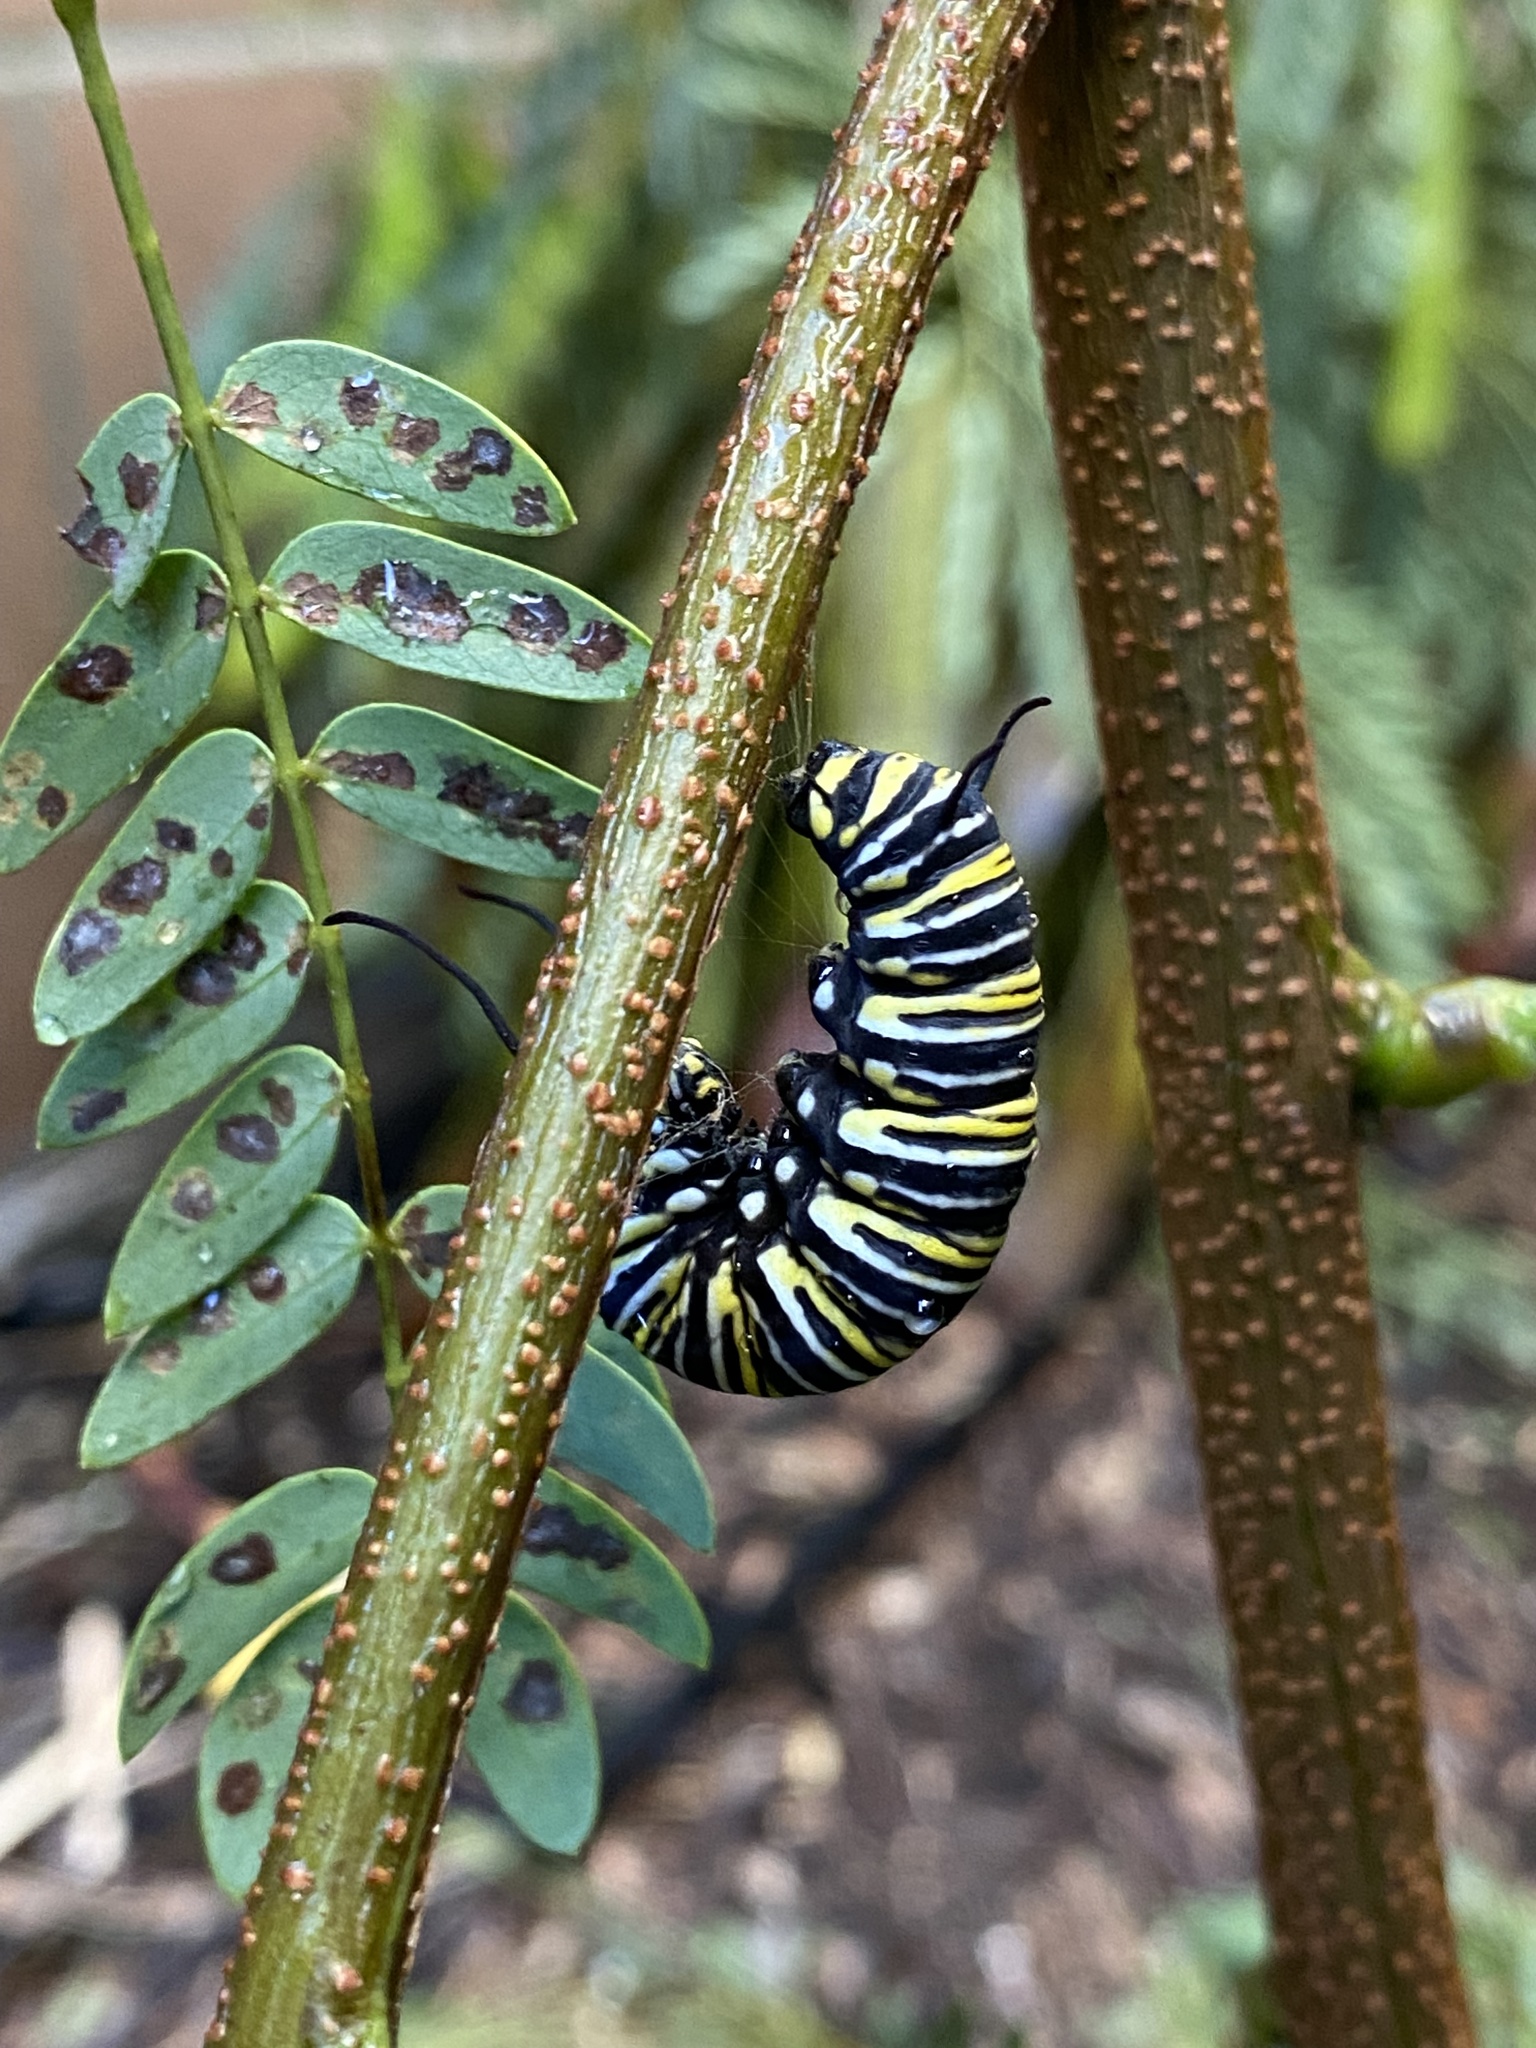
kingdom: Animalia
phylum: Arthropoda
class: Insecta
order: Lepidoptera
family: Nymphalidae
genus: Danaus
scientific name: Danaus plexippus
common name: Monarch
